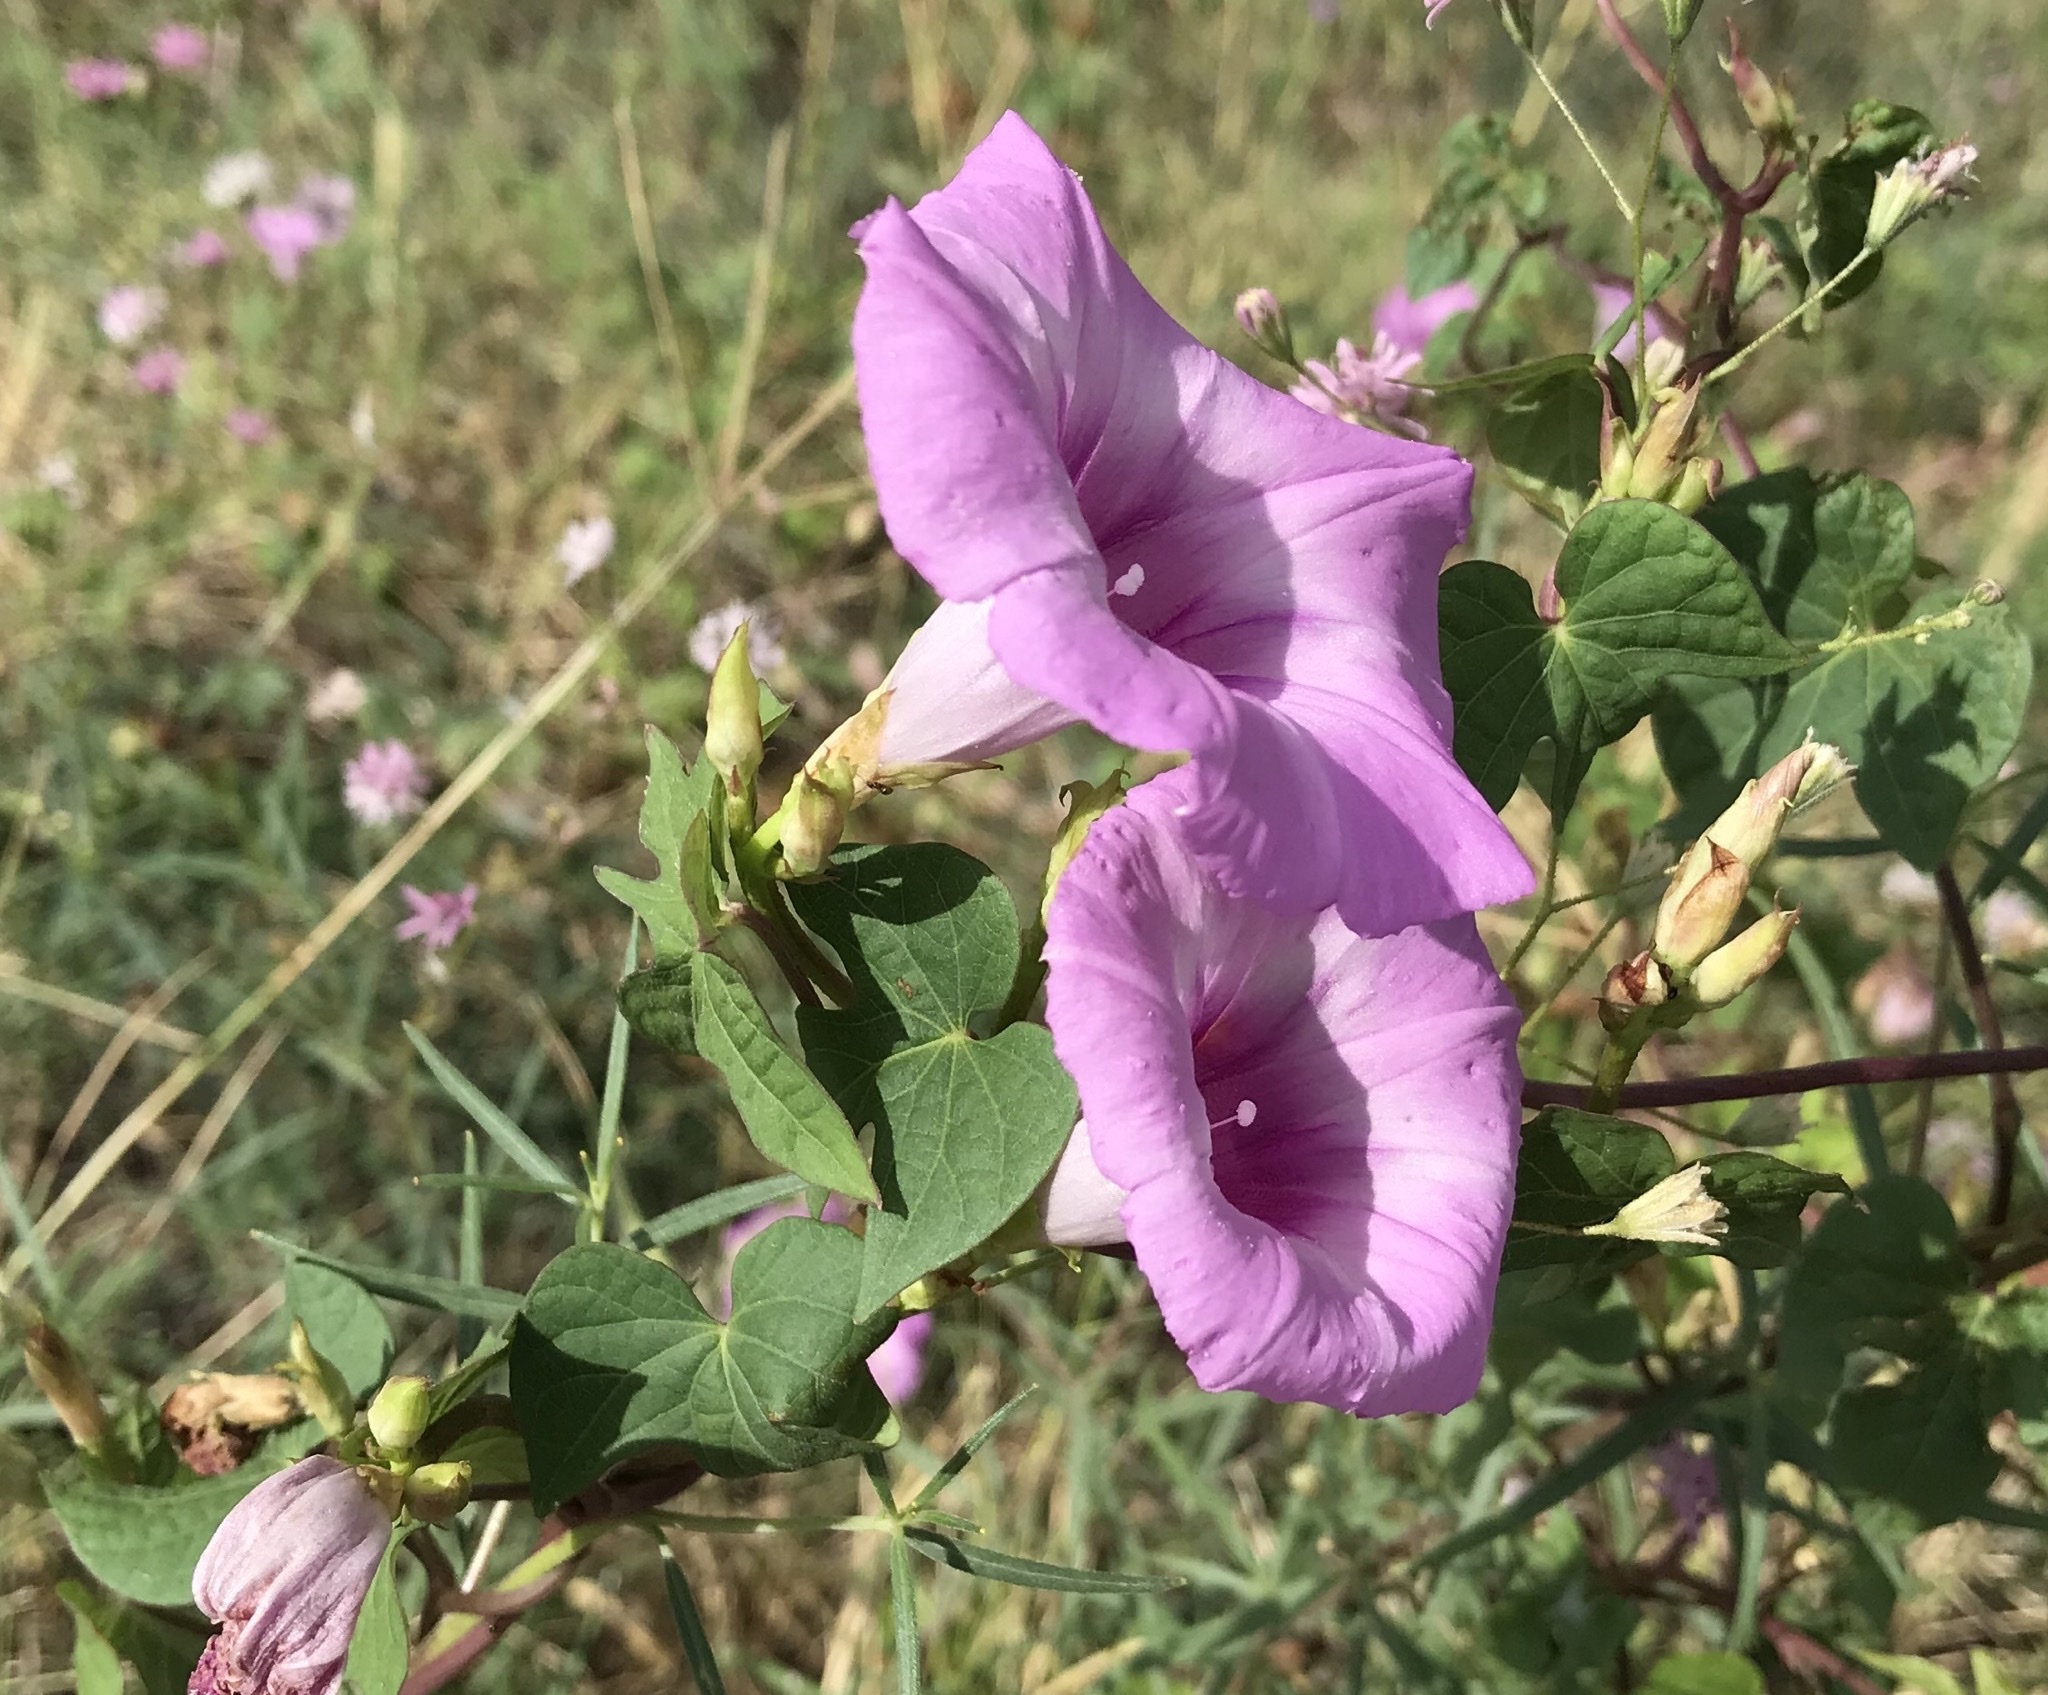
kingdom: Plantae
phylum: Tracheophyta
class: Magnoliopsida
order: Solanales
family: Convolvulaceae
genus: Ipomoea
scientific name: Ipomoea cordatotriloba
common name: Cotton morning glory
